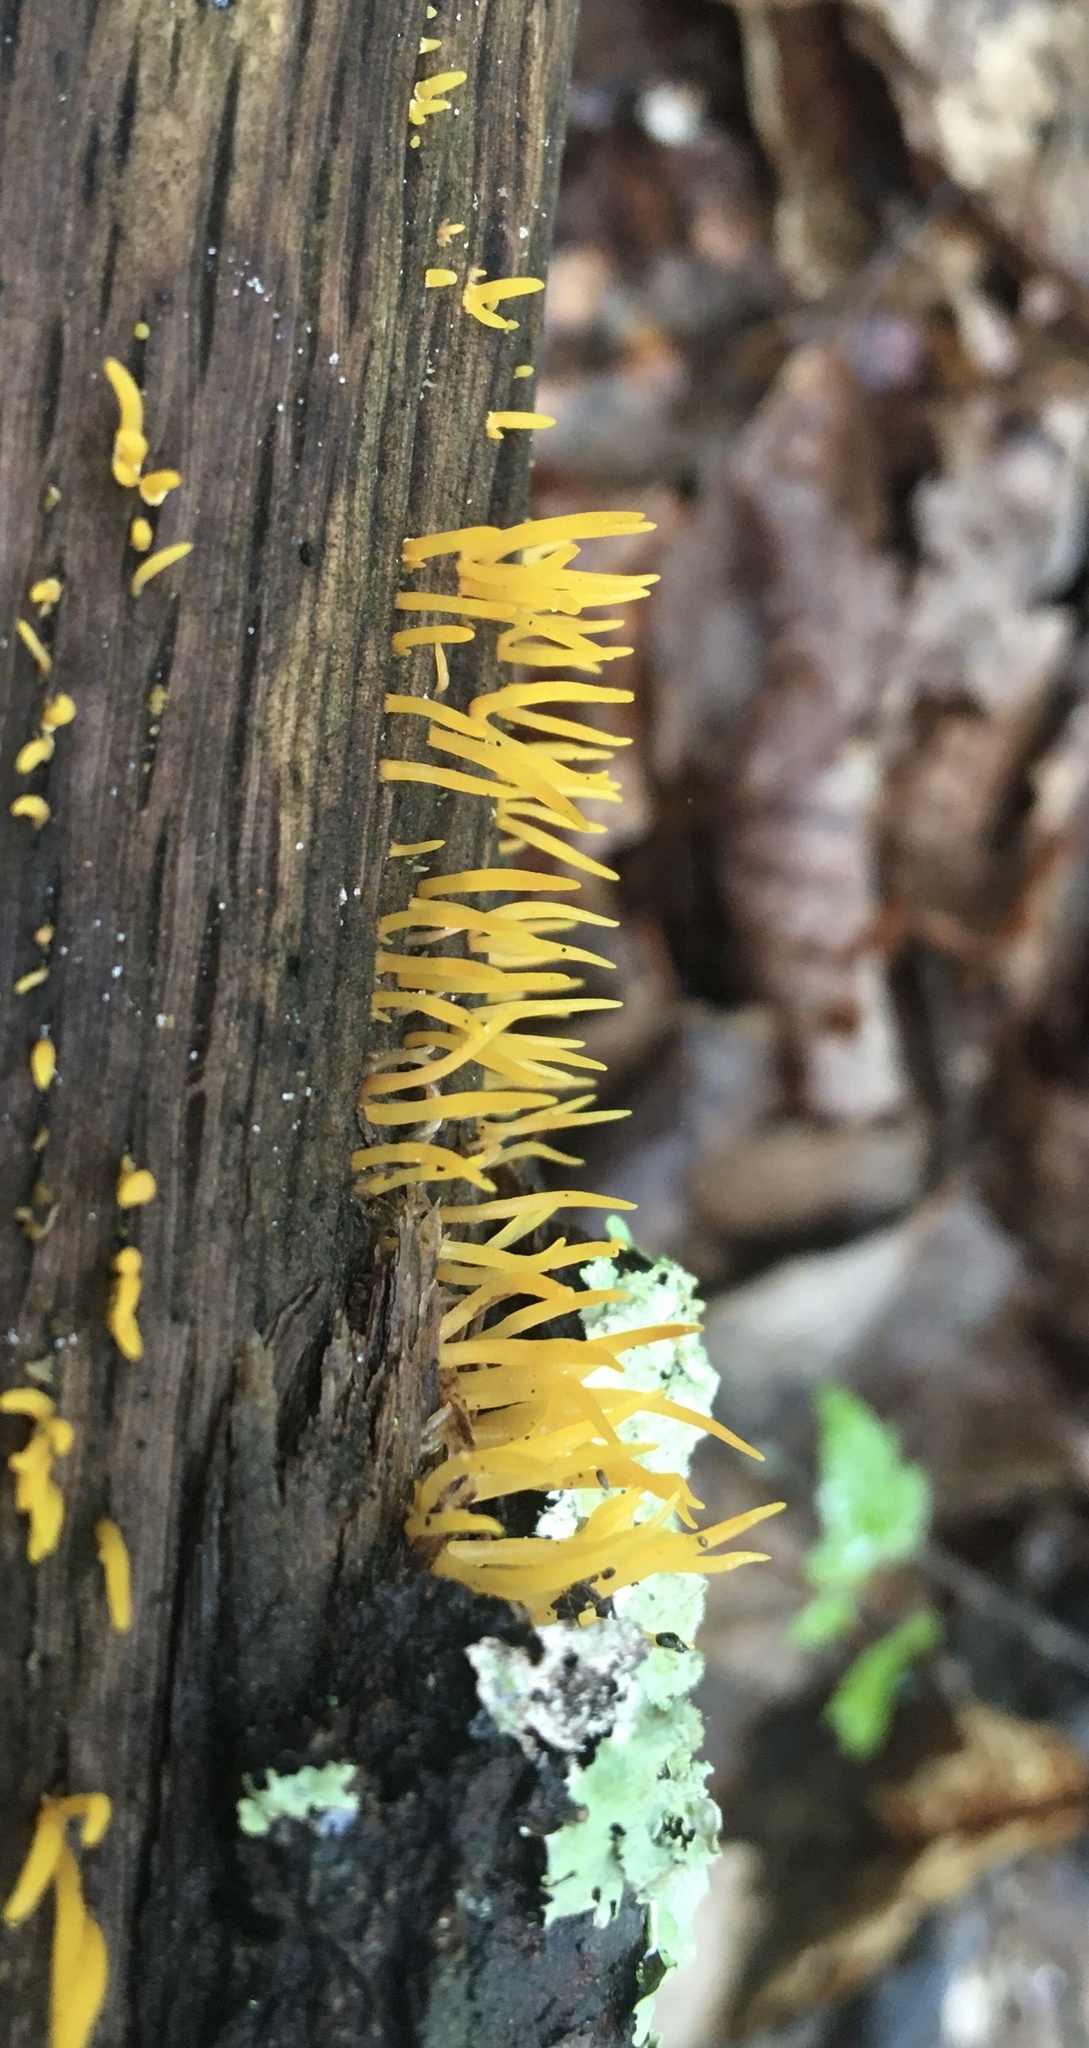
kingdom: Fungi
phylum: Basidiomycota
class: Dacrymycetes
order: Dacrymycetales
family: Dacrymycetaceae
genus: Calocera
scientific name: Calocera cornea
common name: Small stagshorn
